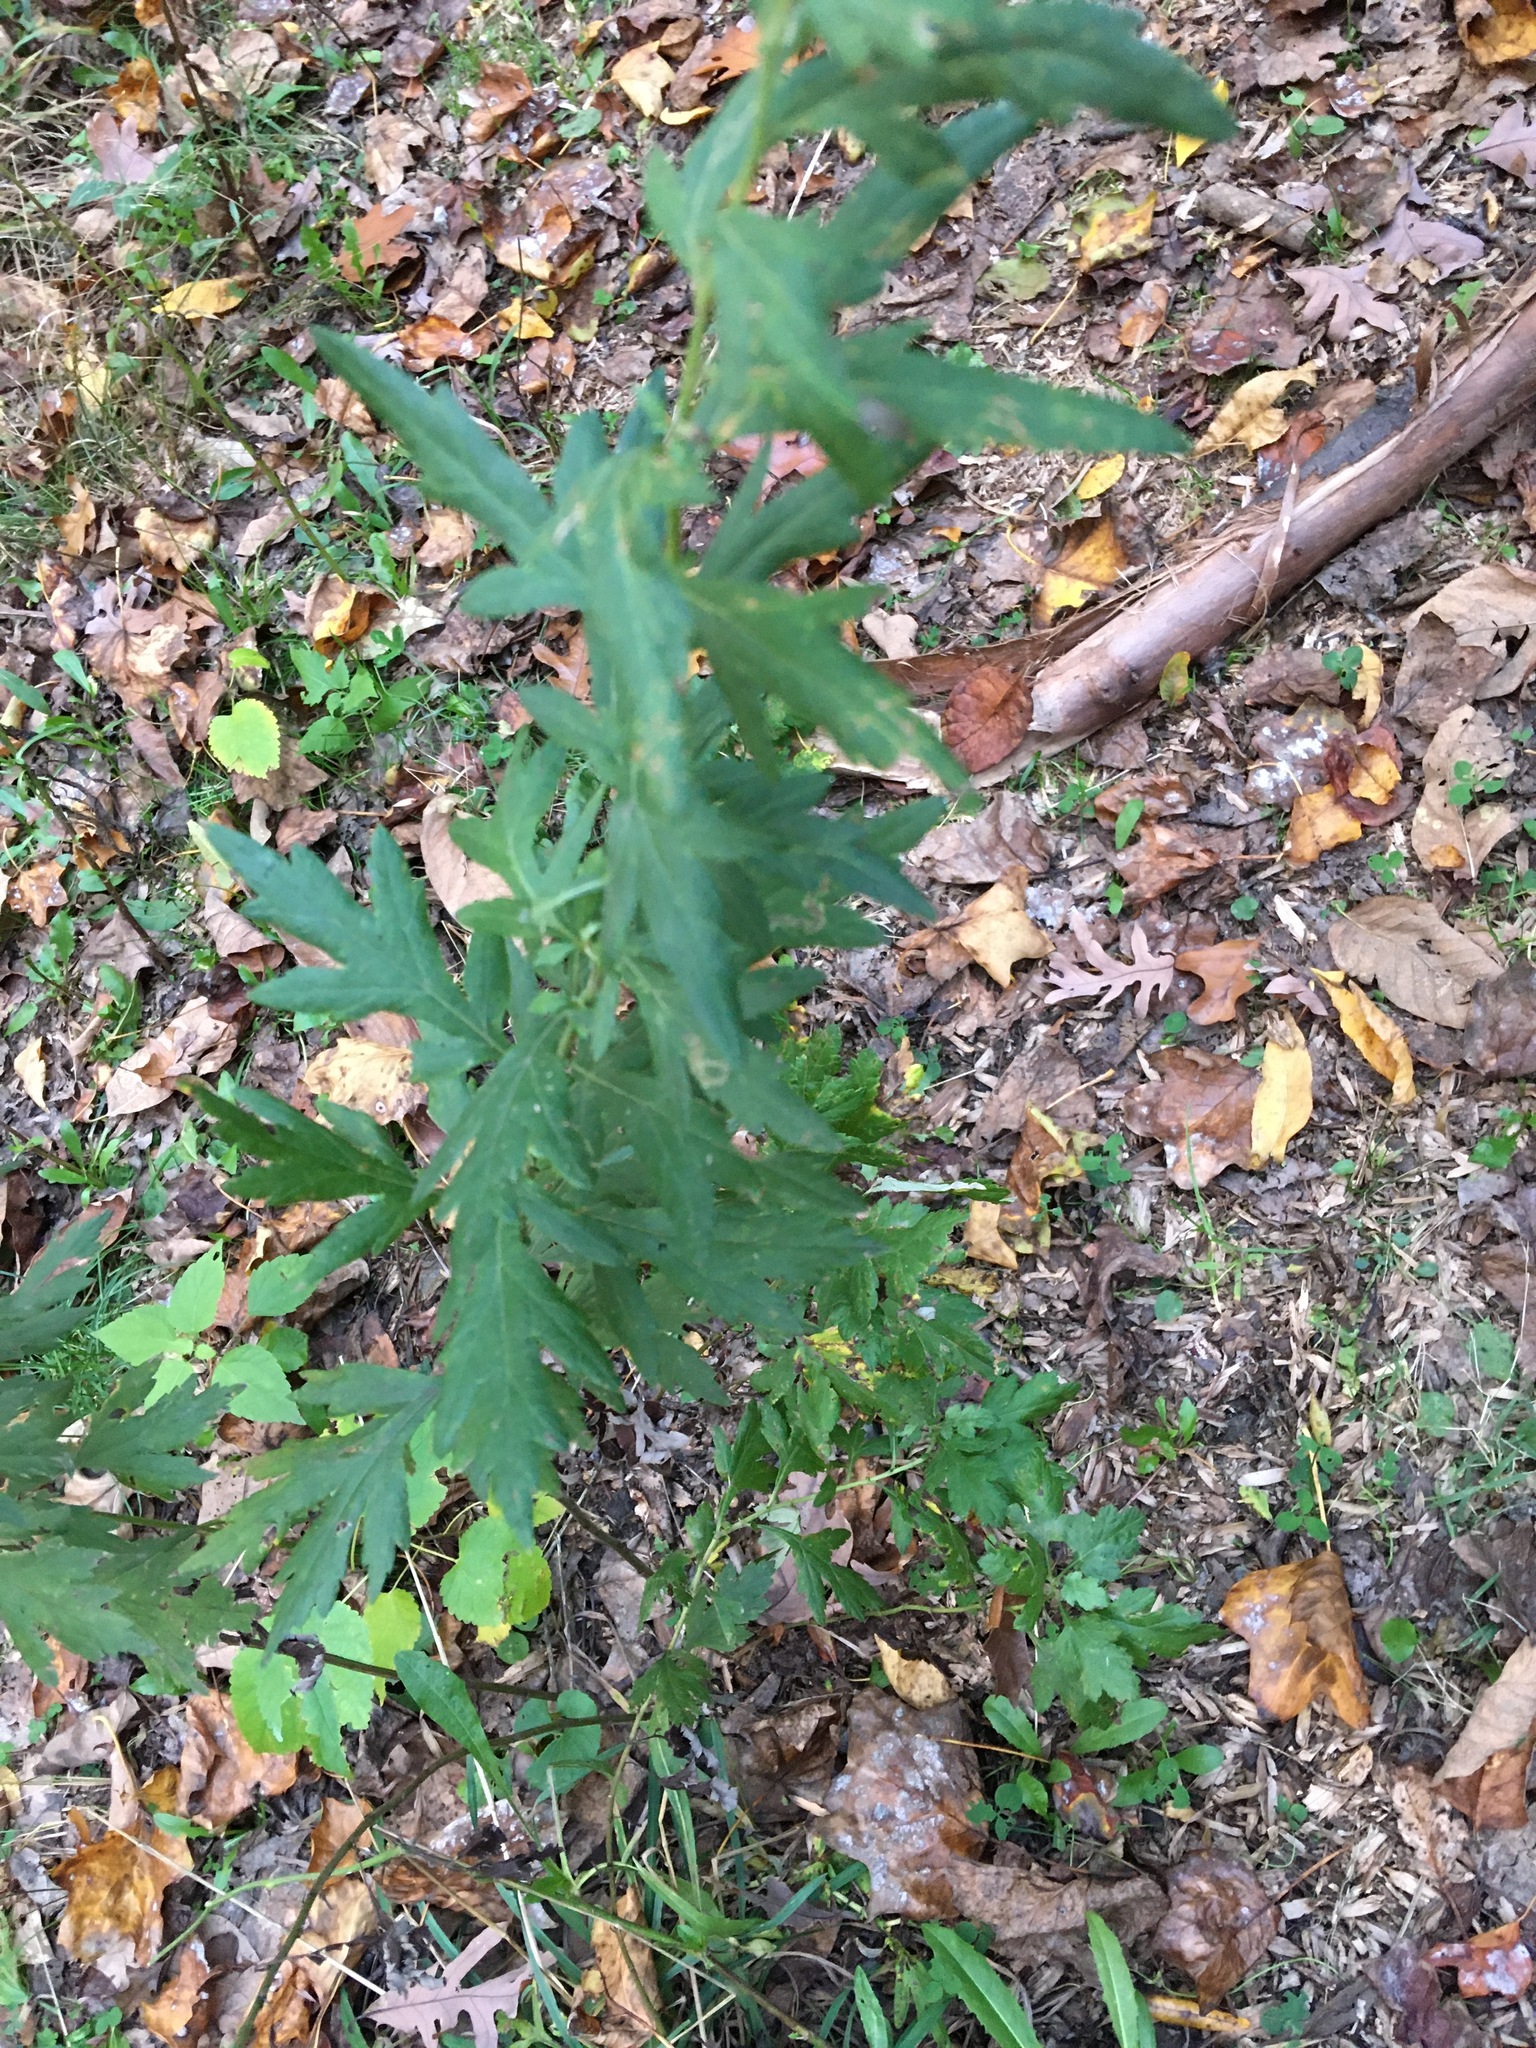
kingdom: Plantae
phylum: Tracheophyta
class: Magnoliopsida
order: Asterales
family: Asteraceae
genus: Artemisia
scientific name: Artemisia vulgaris
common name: Mugwort
